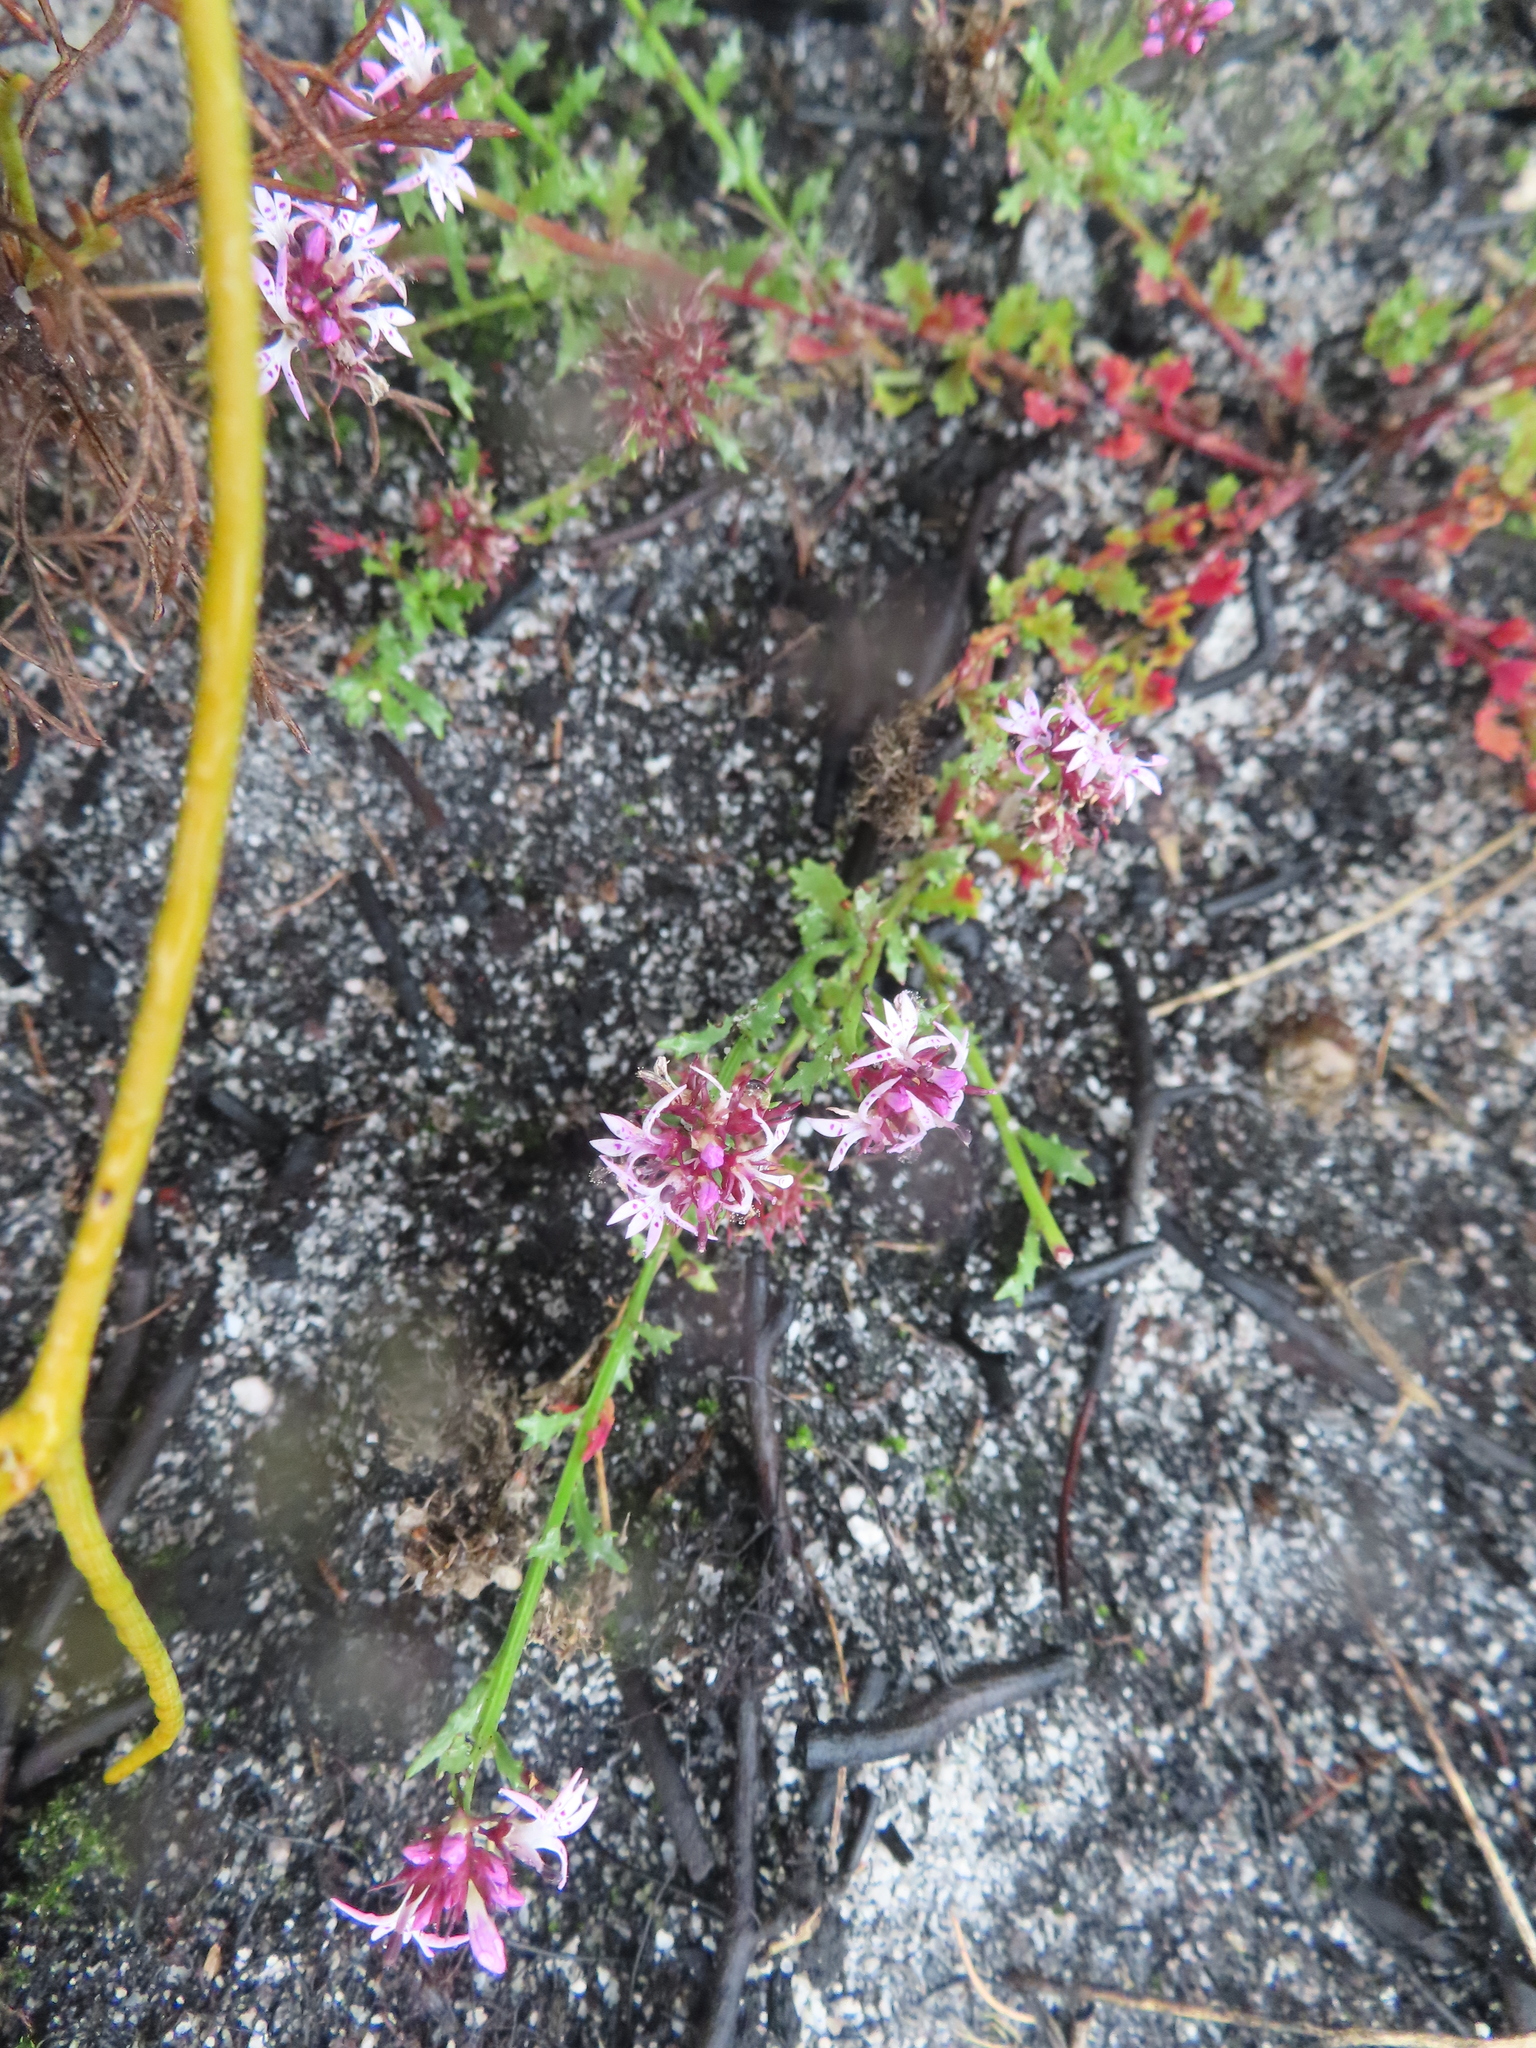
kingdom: Plantae
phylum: Tracheophyta
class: Magnoliopsida
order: Asterales
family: Campanulaceae
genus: Lobelia
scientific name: Lobelia jasionoides
